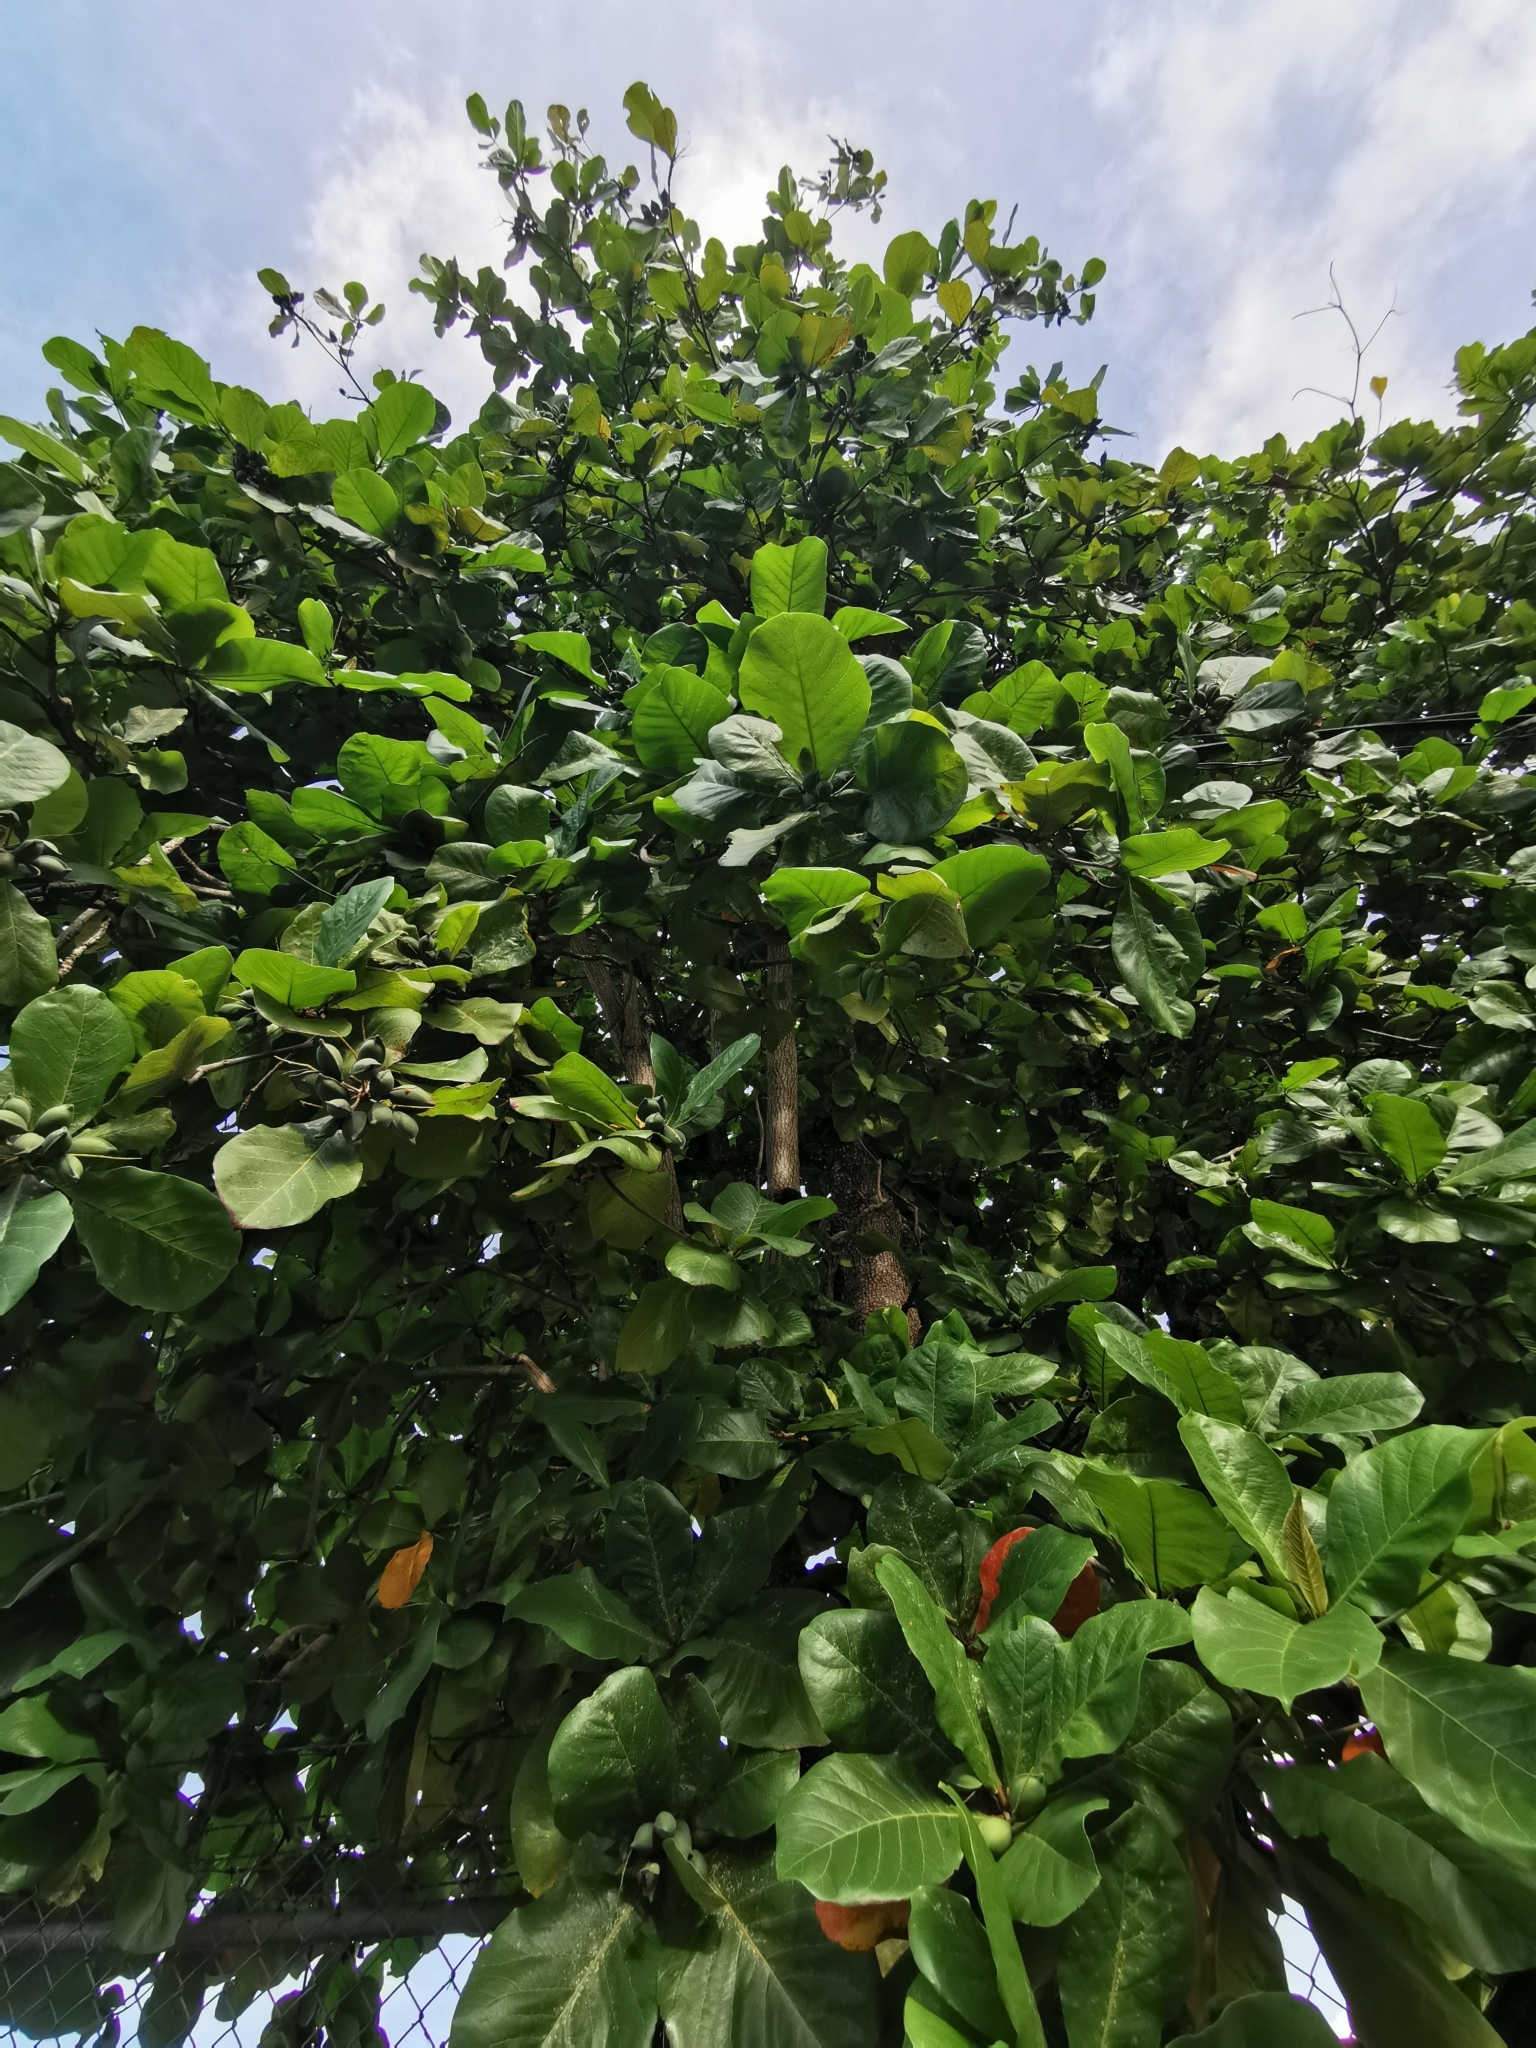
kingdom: Plantae
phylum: Tracheophyta
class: Magnoliopsida
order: Myrtales
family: Combretaceae
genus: Terminalia
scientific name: Terminalia catappa
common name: Tropical almond
